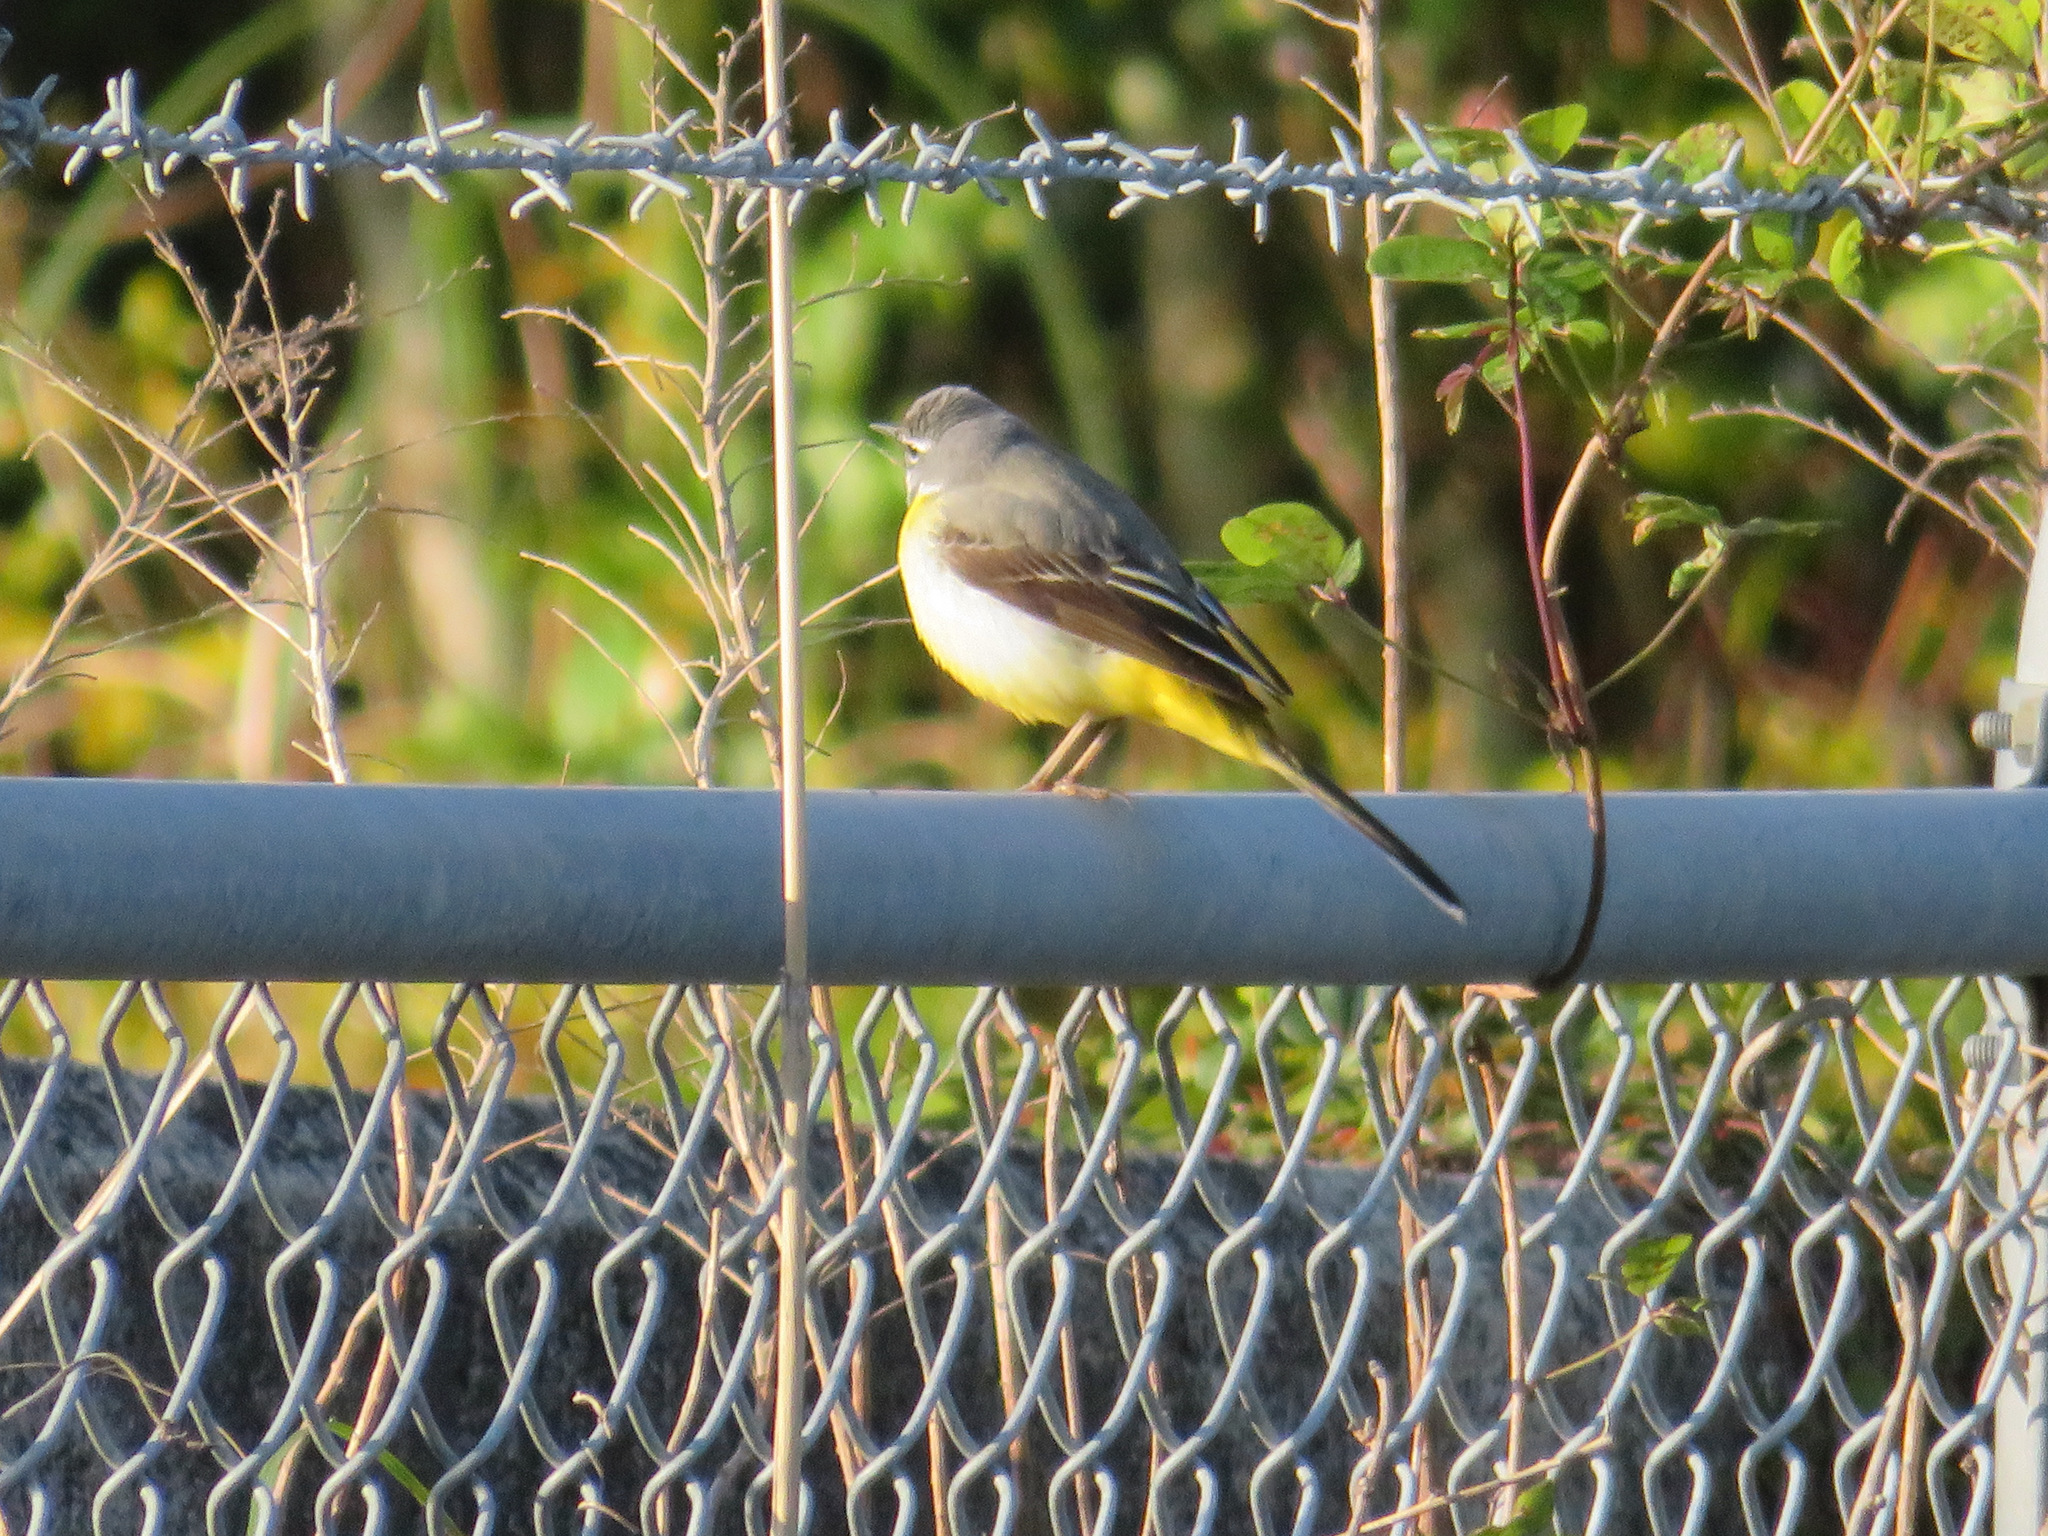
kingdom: Animalia
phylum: Chordata
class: Aves
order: Passeriformes
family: Motacillidae
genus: Motacilla
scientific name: Motacilla cinerea
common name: Grey wagtail
